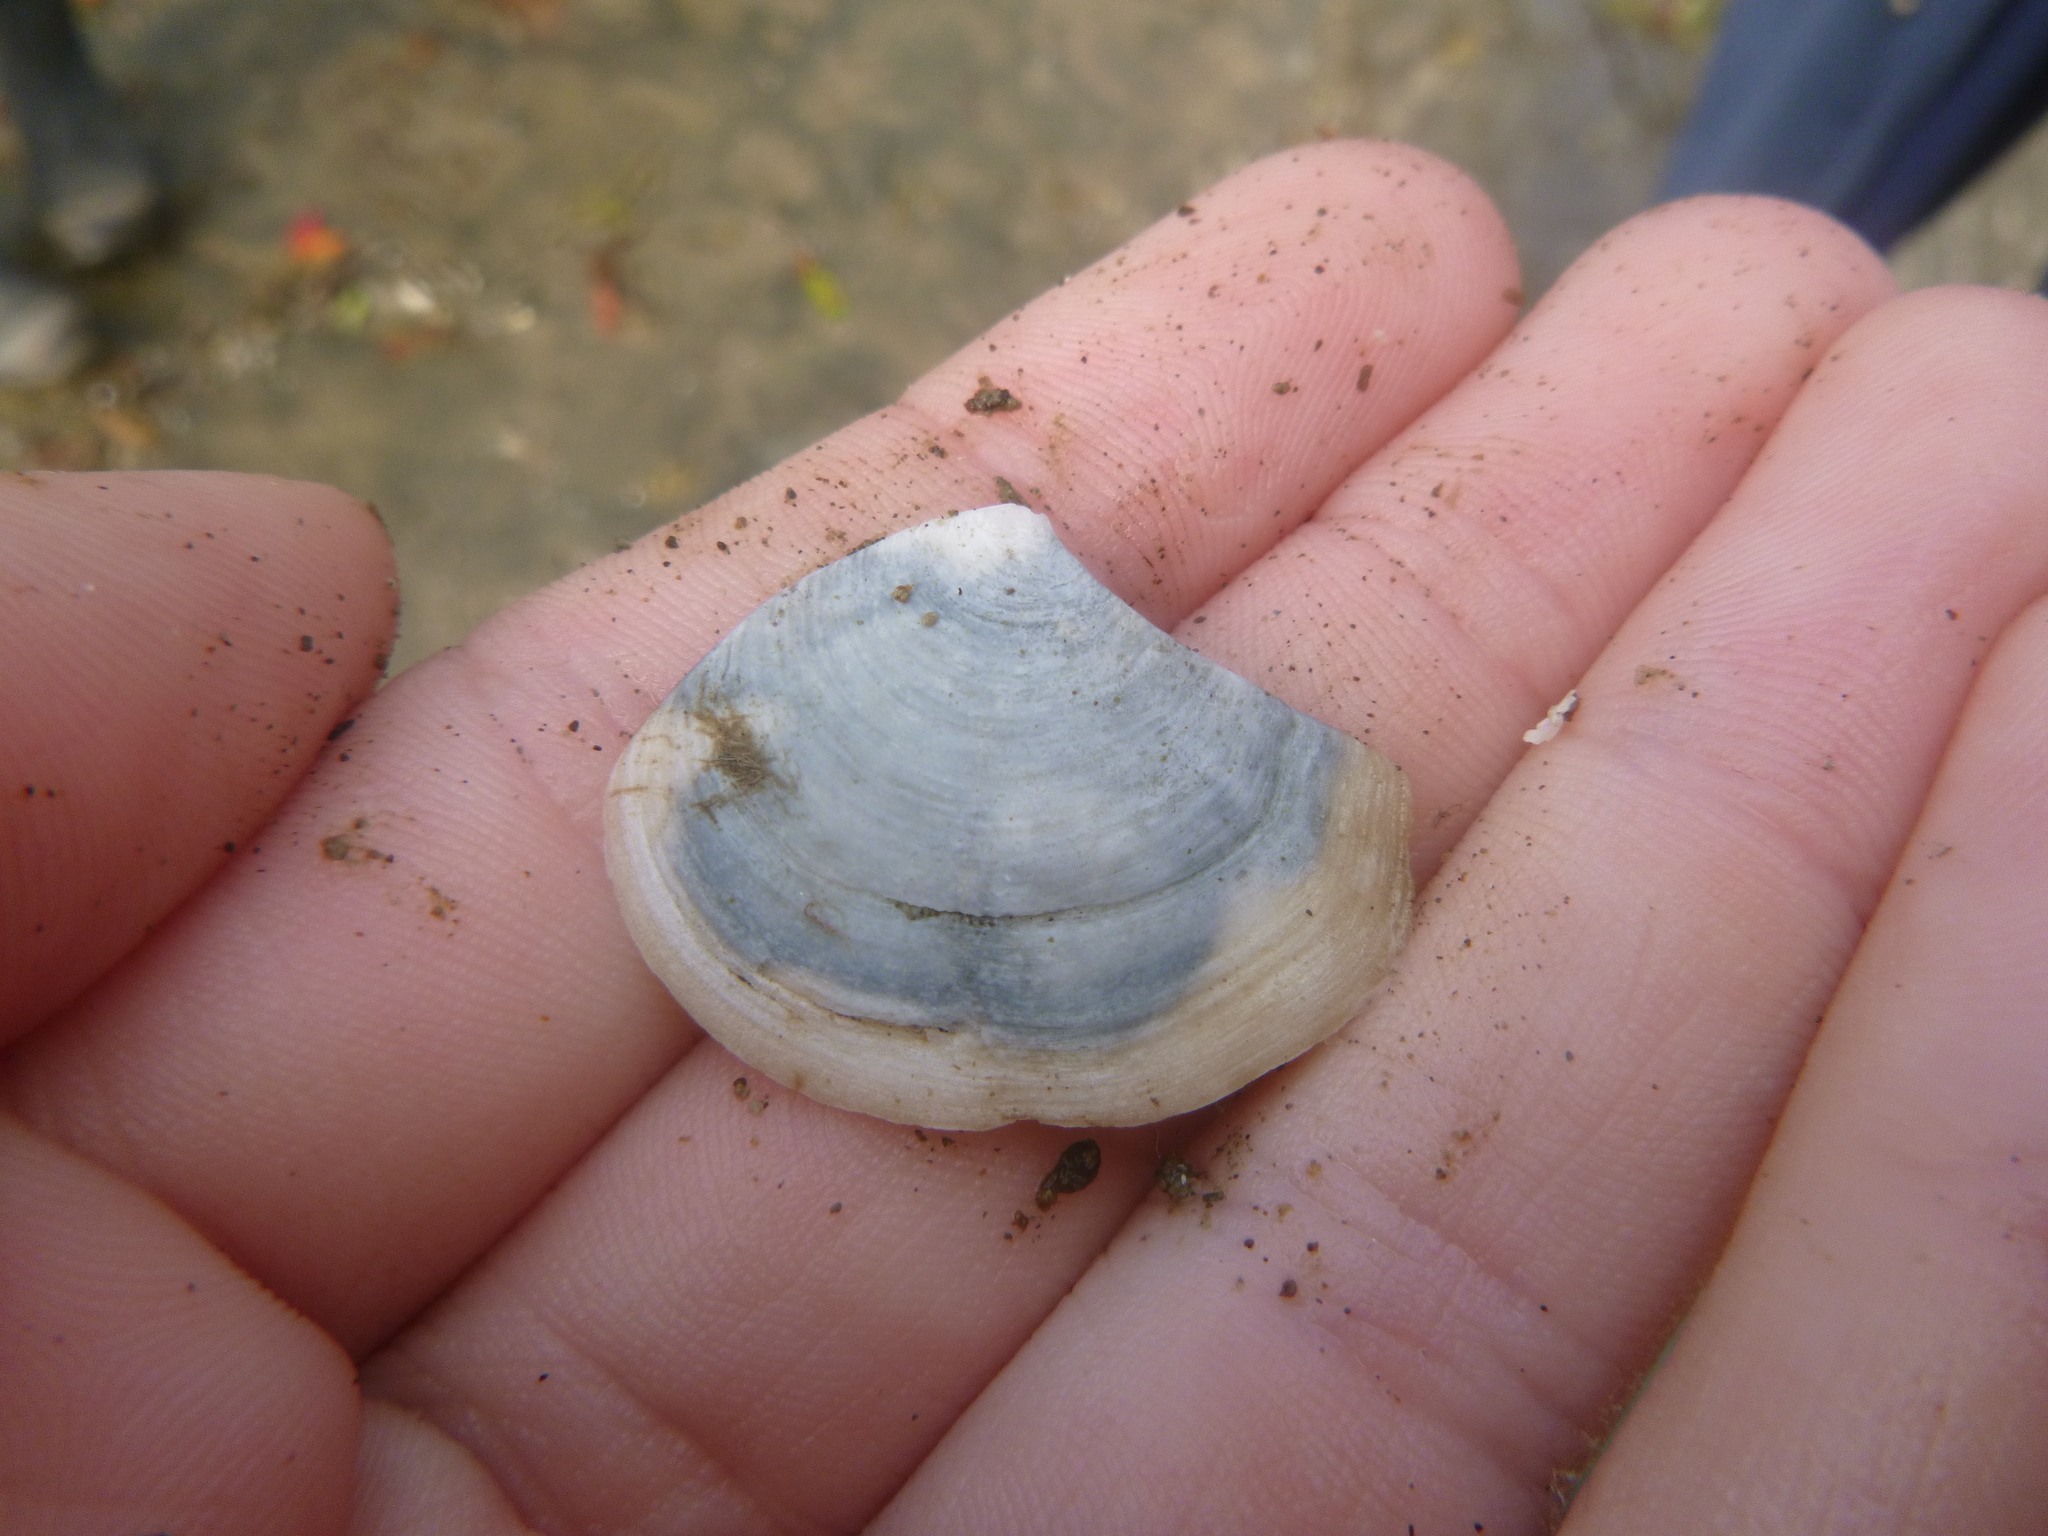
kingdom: Animalia
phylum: Mollusca
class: Bivalvia
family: Myochamidae
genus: Myadora
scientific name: Myadora striata
